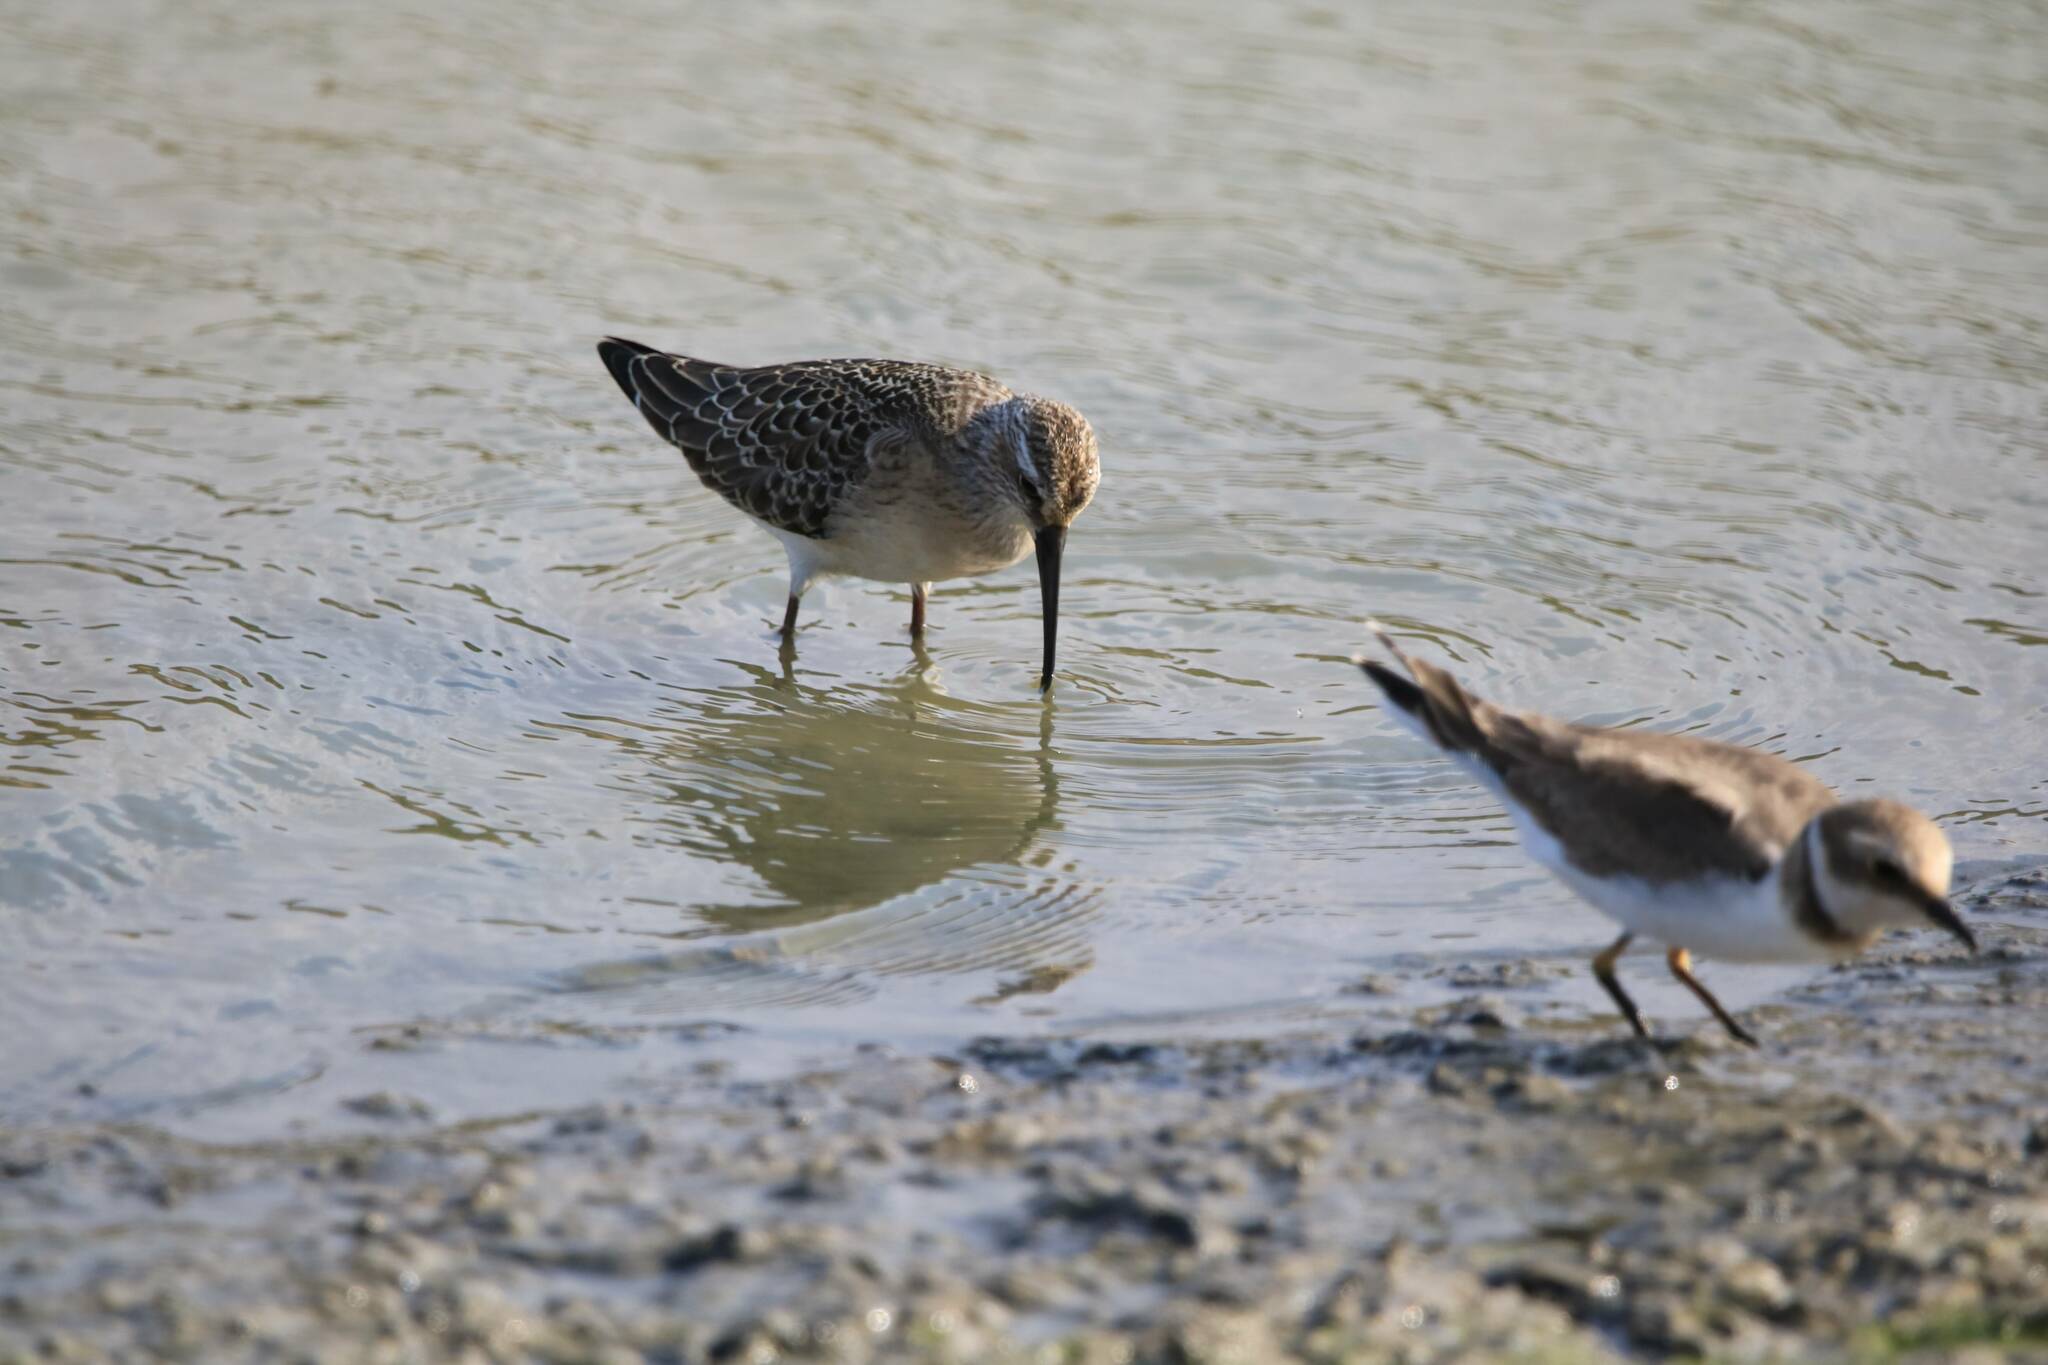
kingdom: Animalia
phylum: Chordata
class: Aves
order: Charadriiformes
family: Scolopacidae
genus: Calidris
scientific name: Calidris ferruginea
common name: Curlew sandpiper
